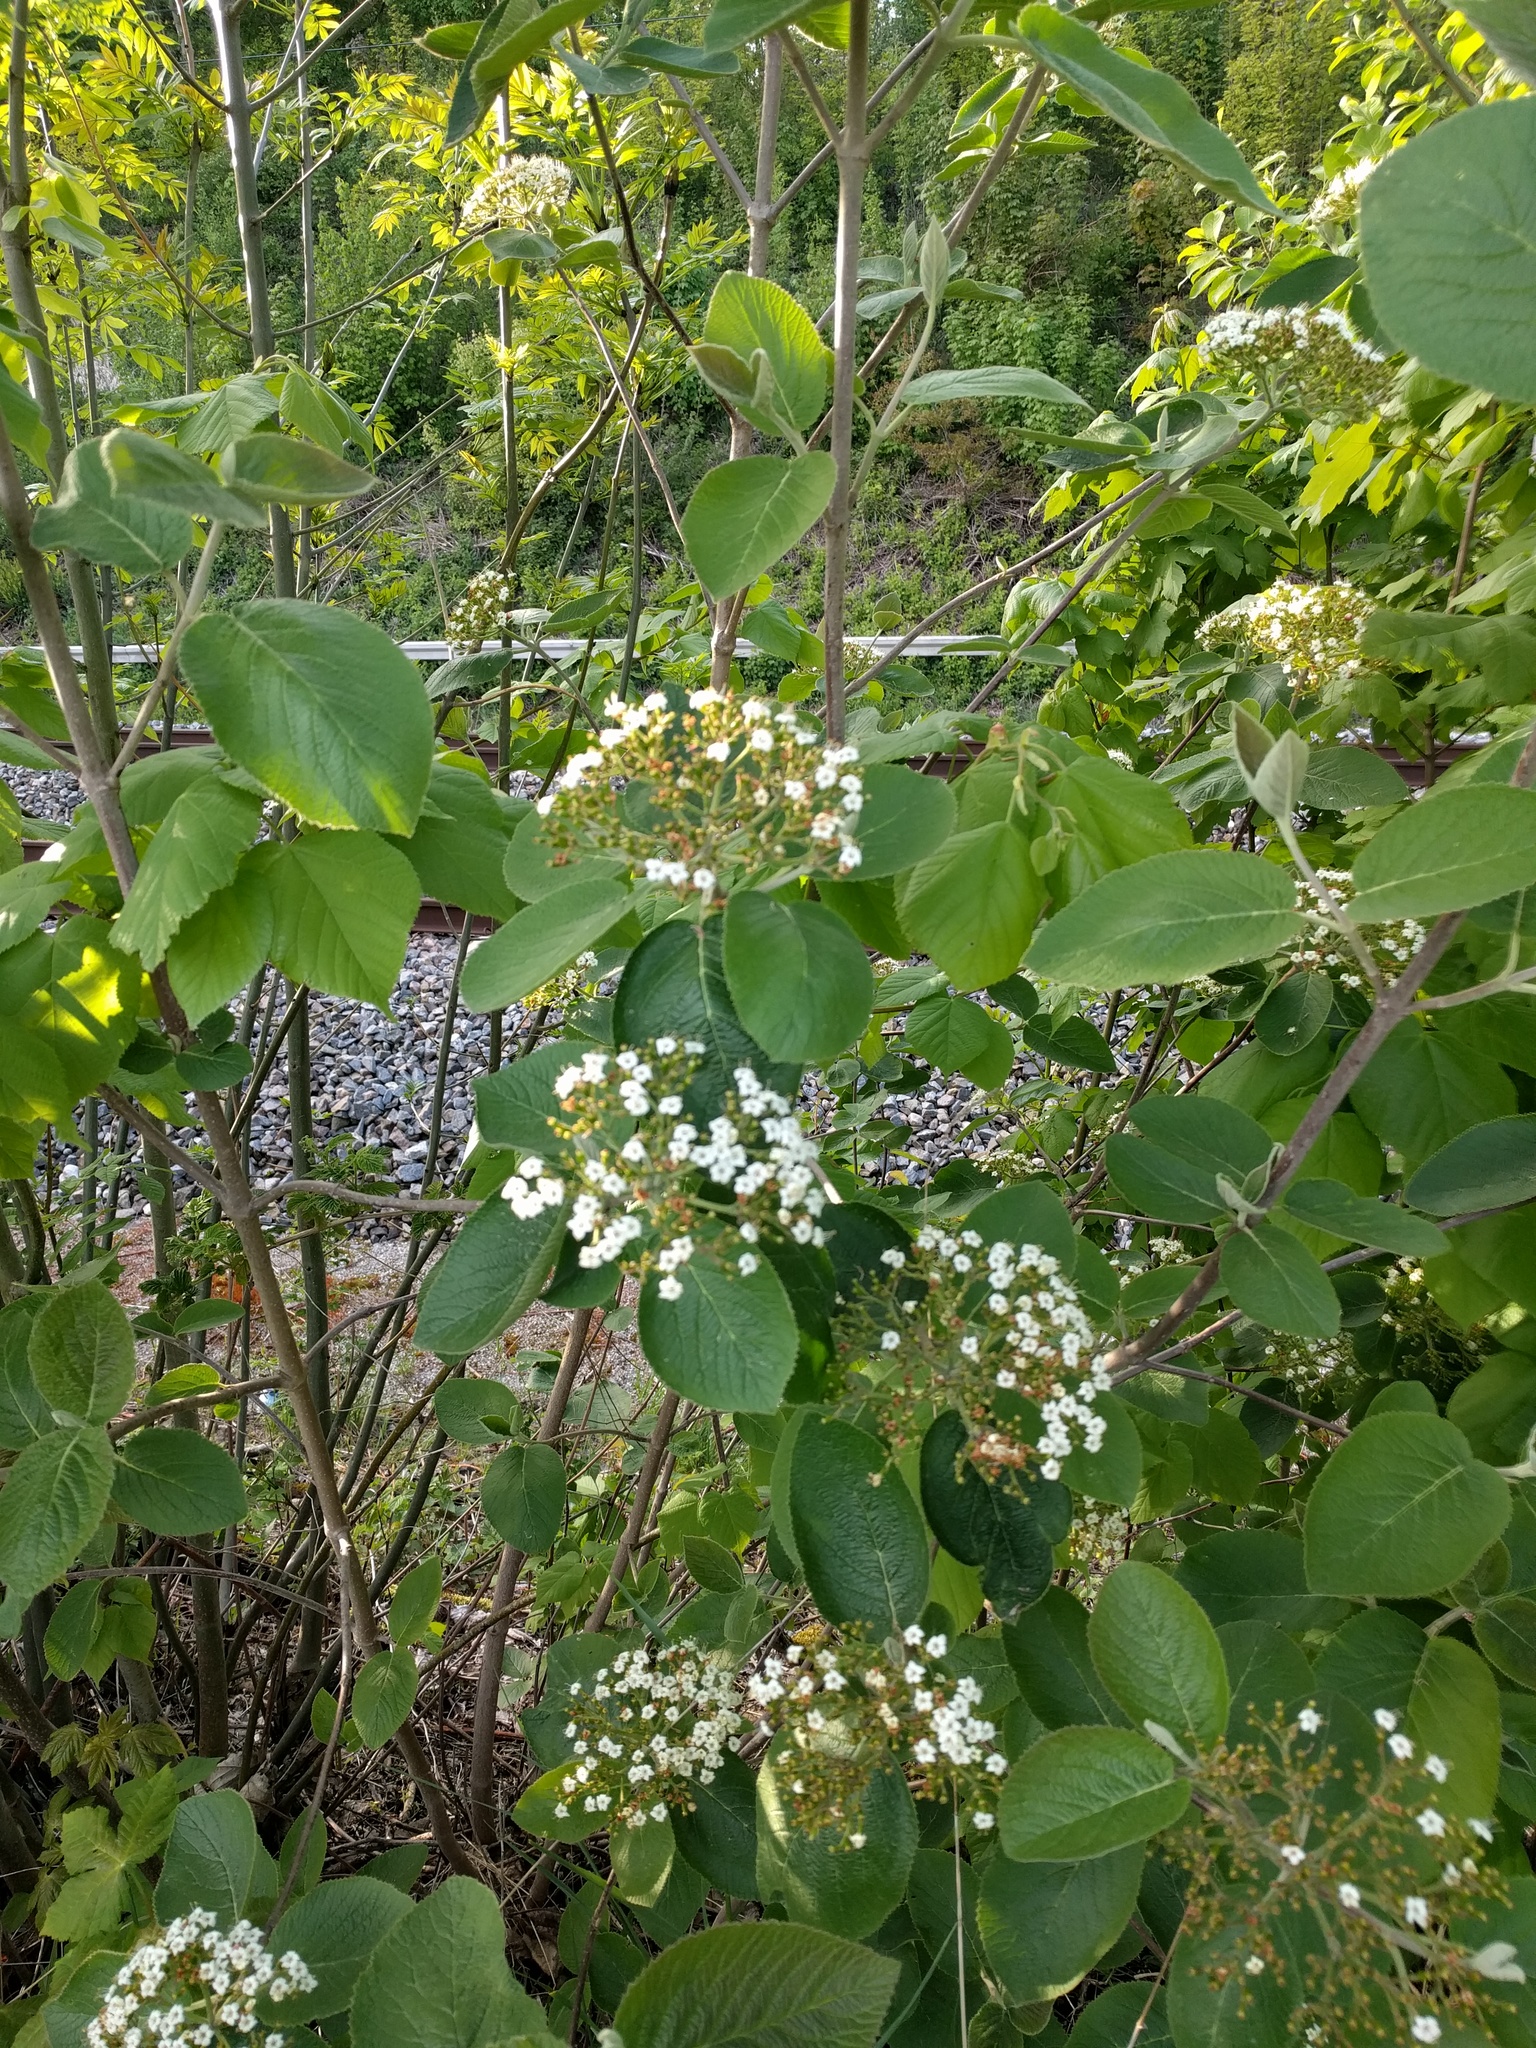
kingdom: Plantae
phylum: Tracheophyta
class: Magnoliopsida
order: Dipsacales
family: Viburnaceae
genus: Viburnum
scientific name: Viburnum lantana
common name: Wayfaring tree
